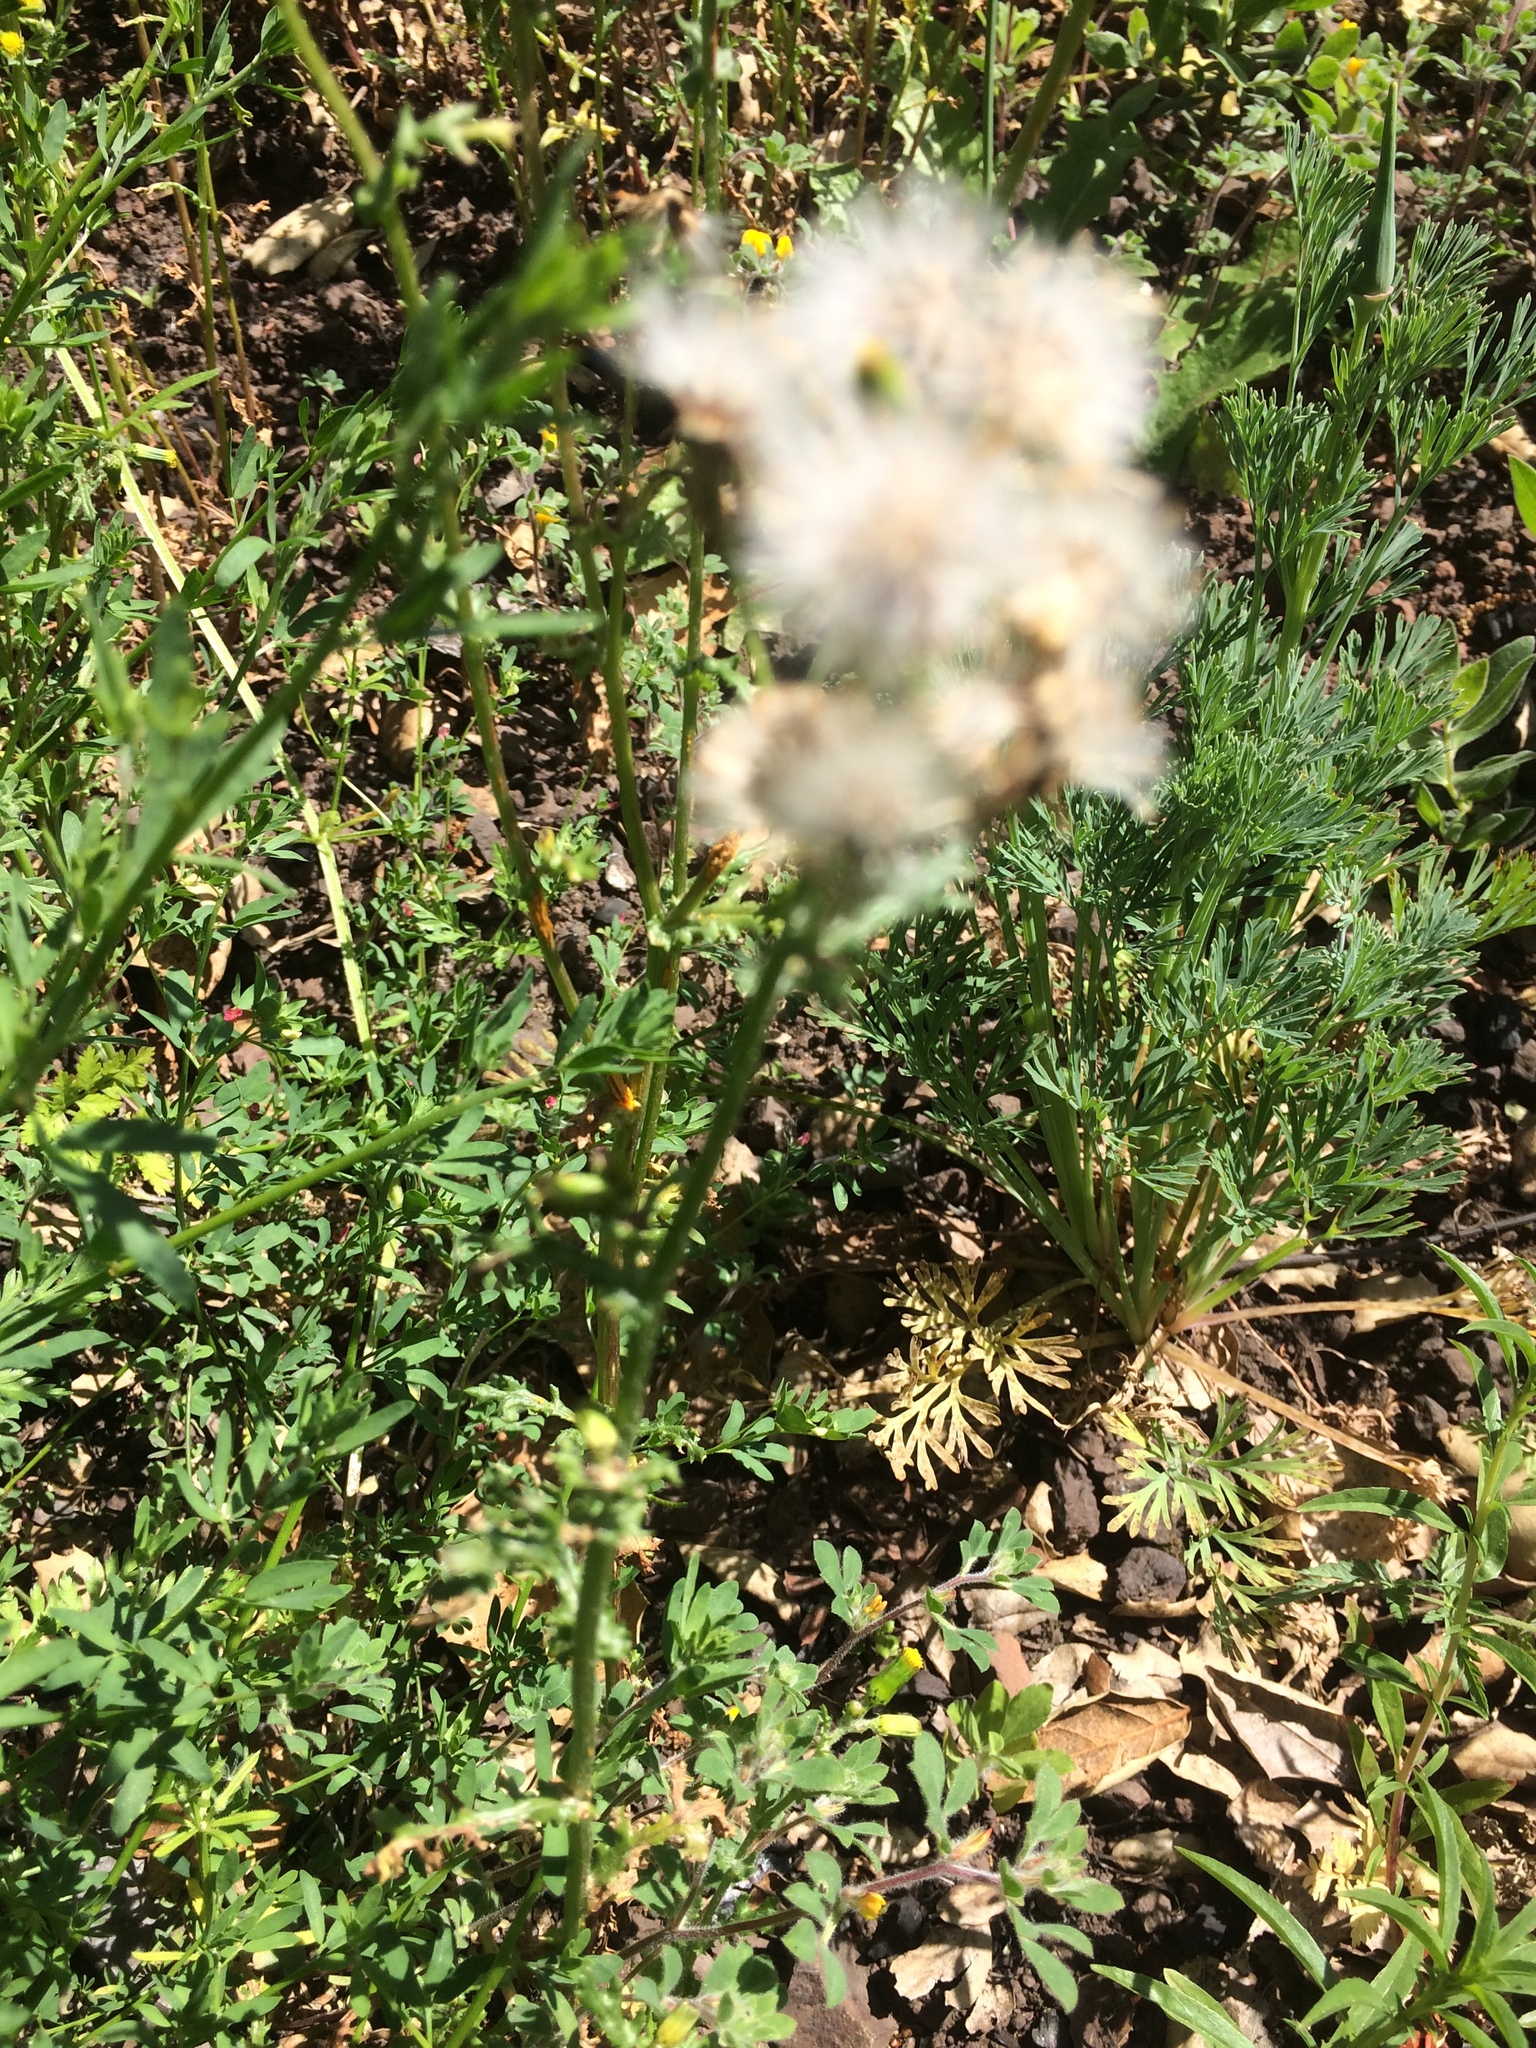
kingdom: Plantae
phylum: Tracheophyta
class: Magnoliopsida
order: Asterales
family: Asteraceae
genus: Senecio
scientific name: Senecio vulgaris
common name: Old-man-in-the-spring
